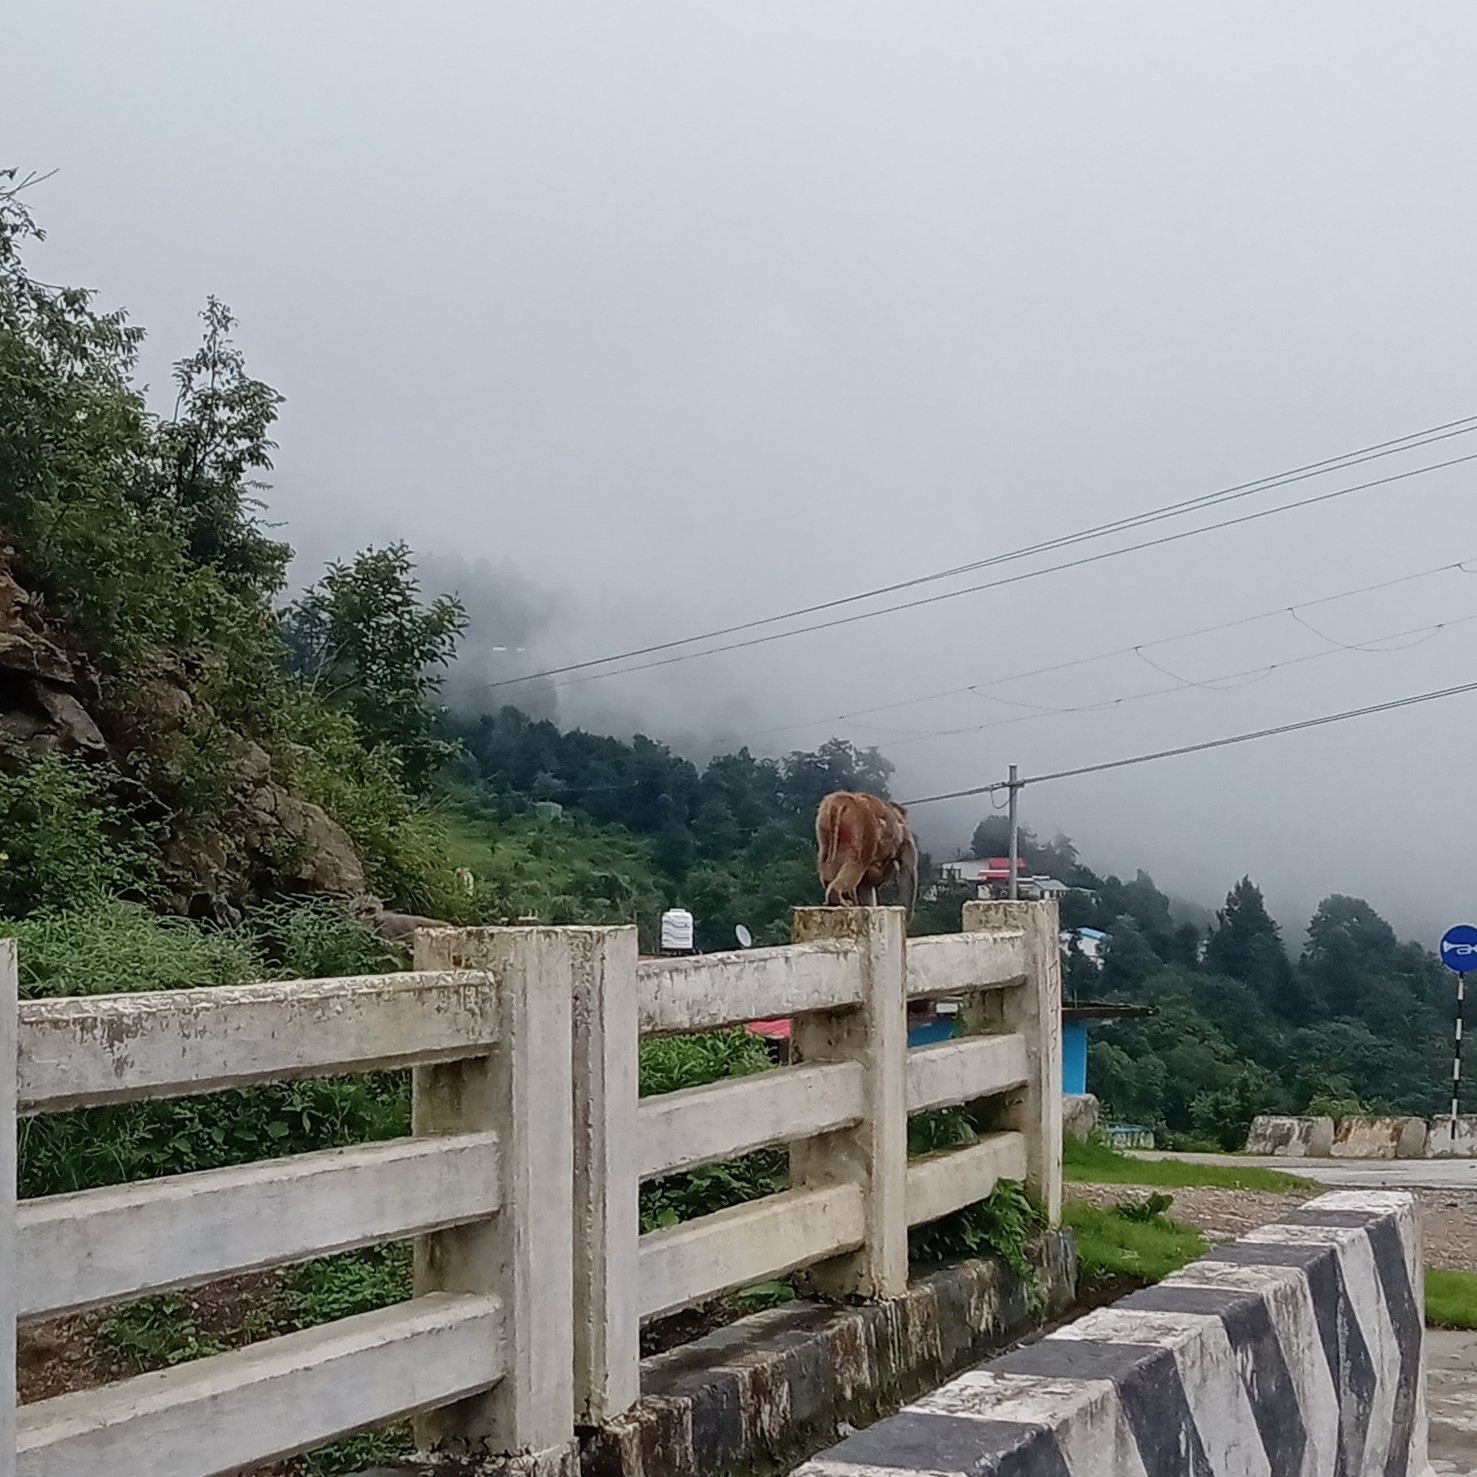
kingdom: Animalia
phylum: Chordata
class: Mammalia
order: Primates
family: Cercopithecidae
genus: Macaca
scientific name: Macaca mulatta
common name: Rhesus monkey
